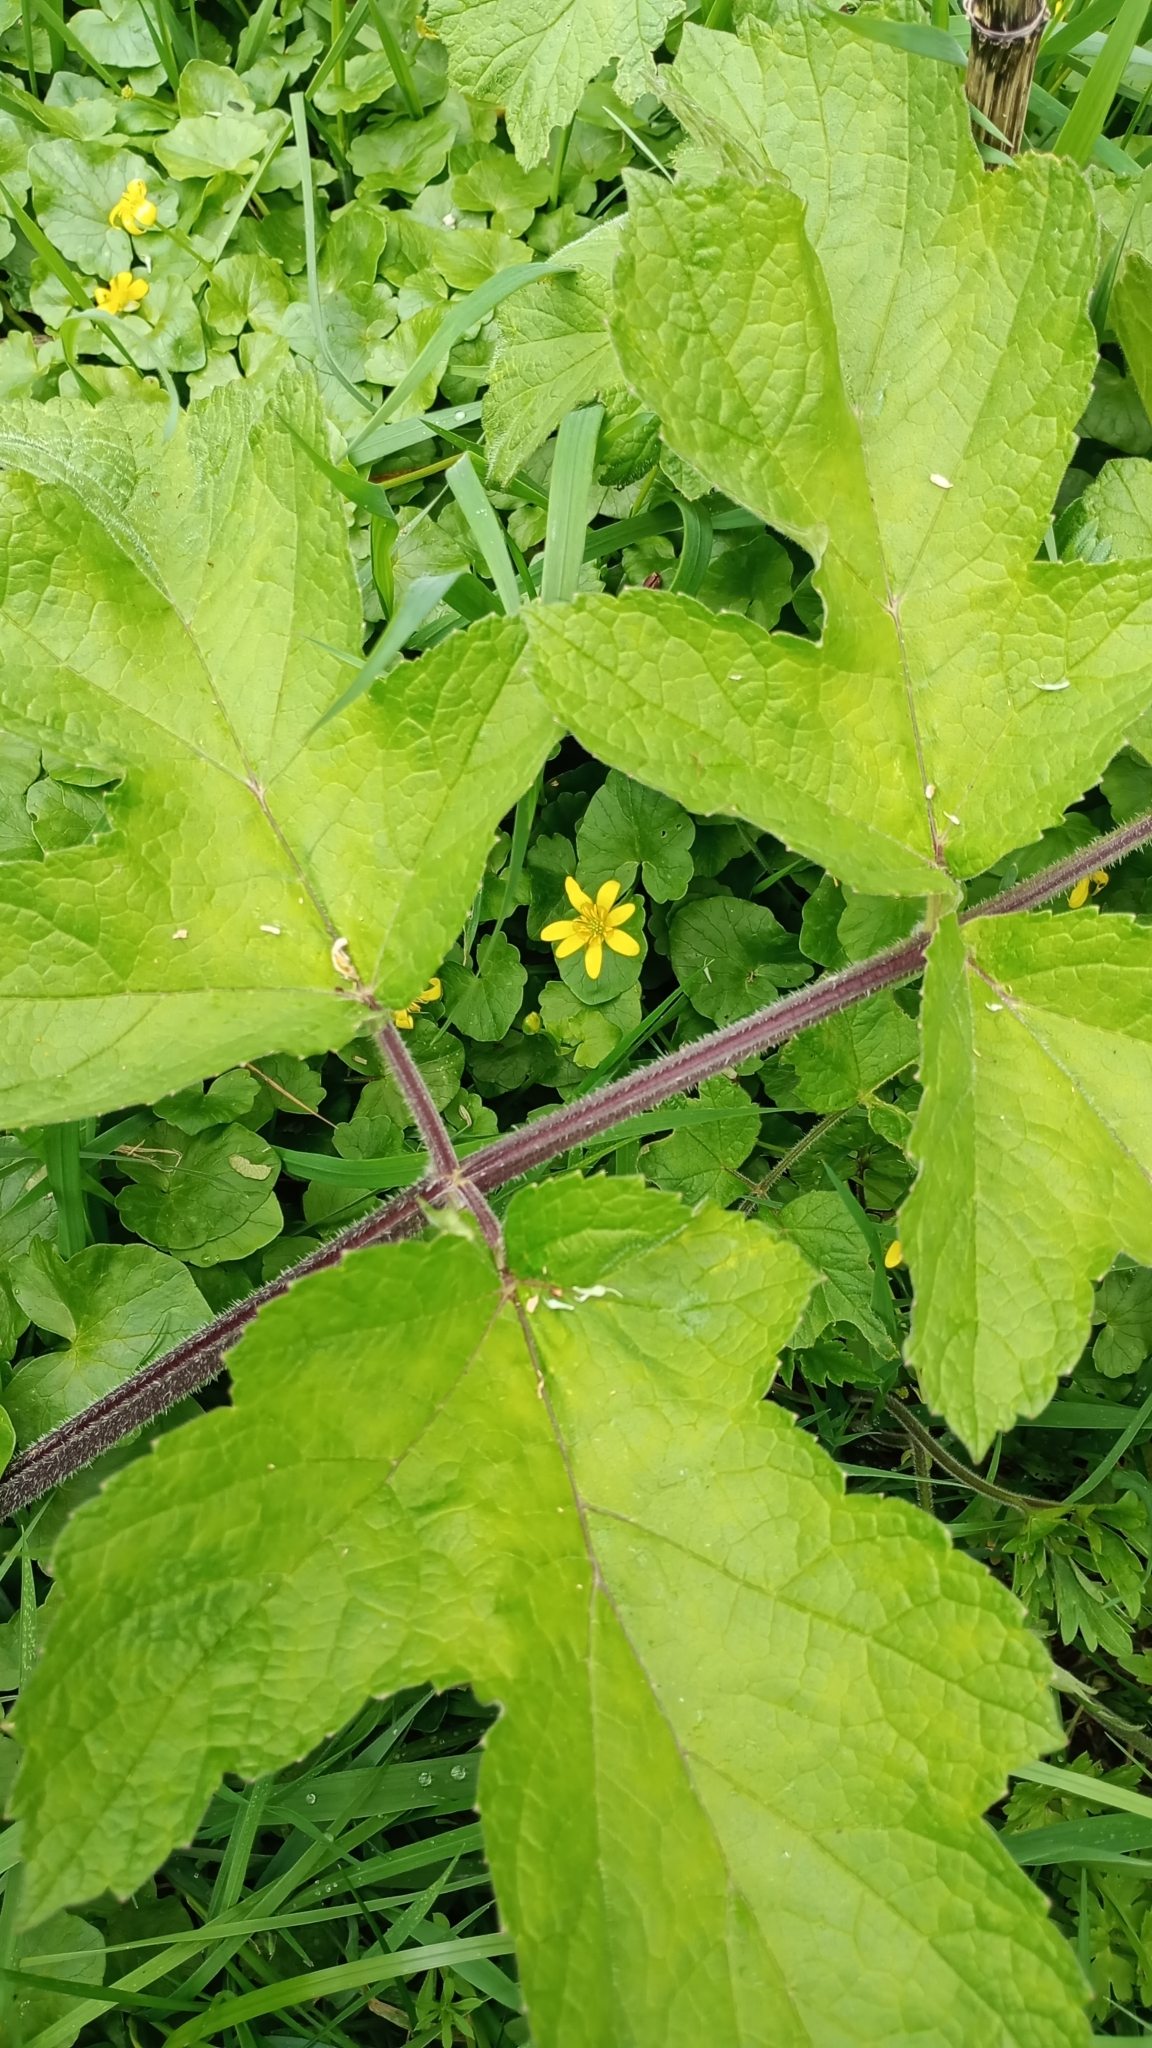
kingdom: Plantae
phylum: Tracheophyta
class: Magnoliopsida
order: Apiales
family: Apiaceae
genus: Heracleum
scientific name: Heracleum sphondylium
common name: Hogweed
